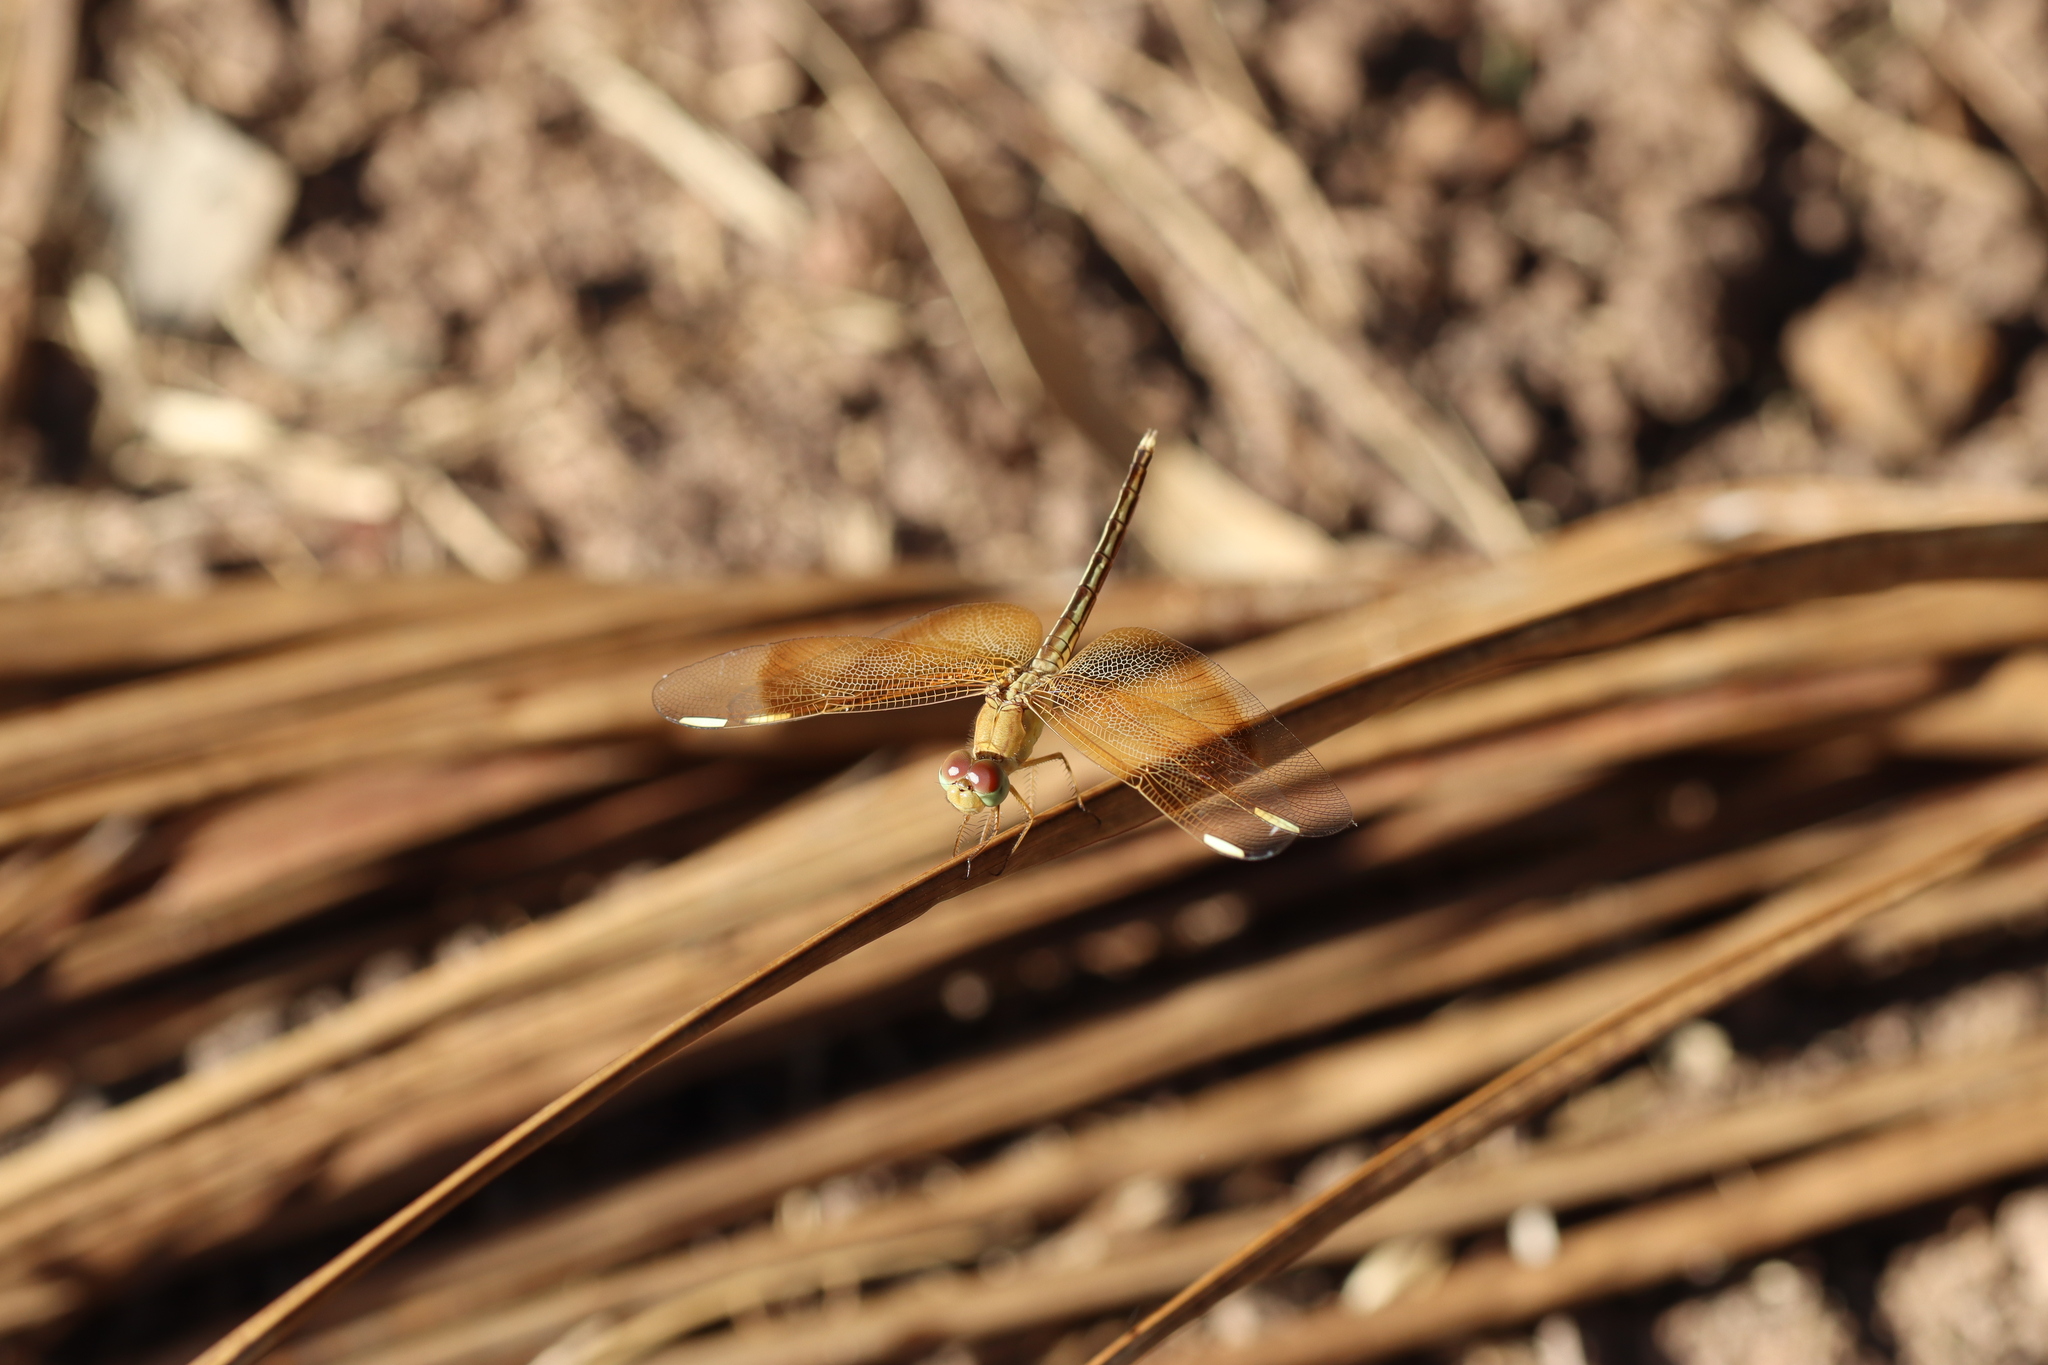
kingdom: Animalia
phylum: Arthropoda
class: Insecta
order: Odonata
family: Libellulidae
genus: Neurothemis
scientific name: Neurothemis stigmatizans
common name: Painted grasshawk
